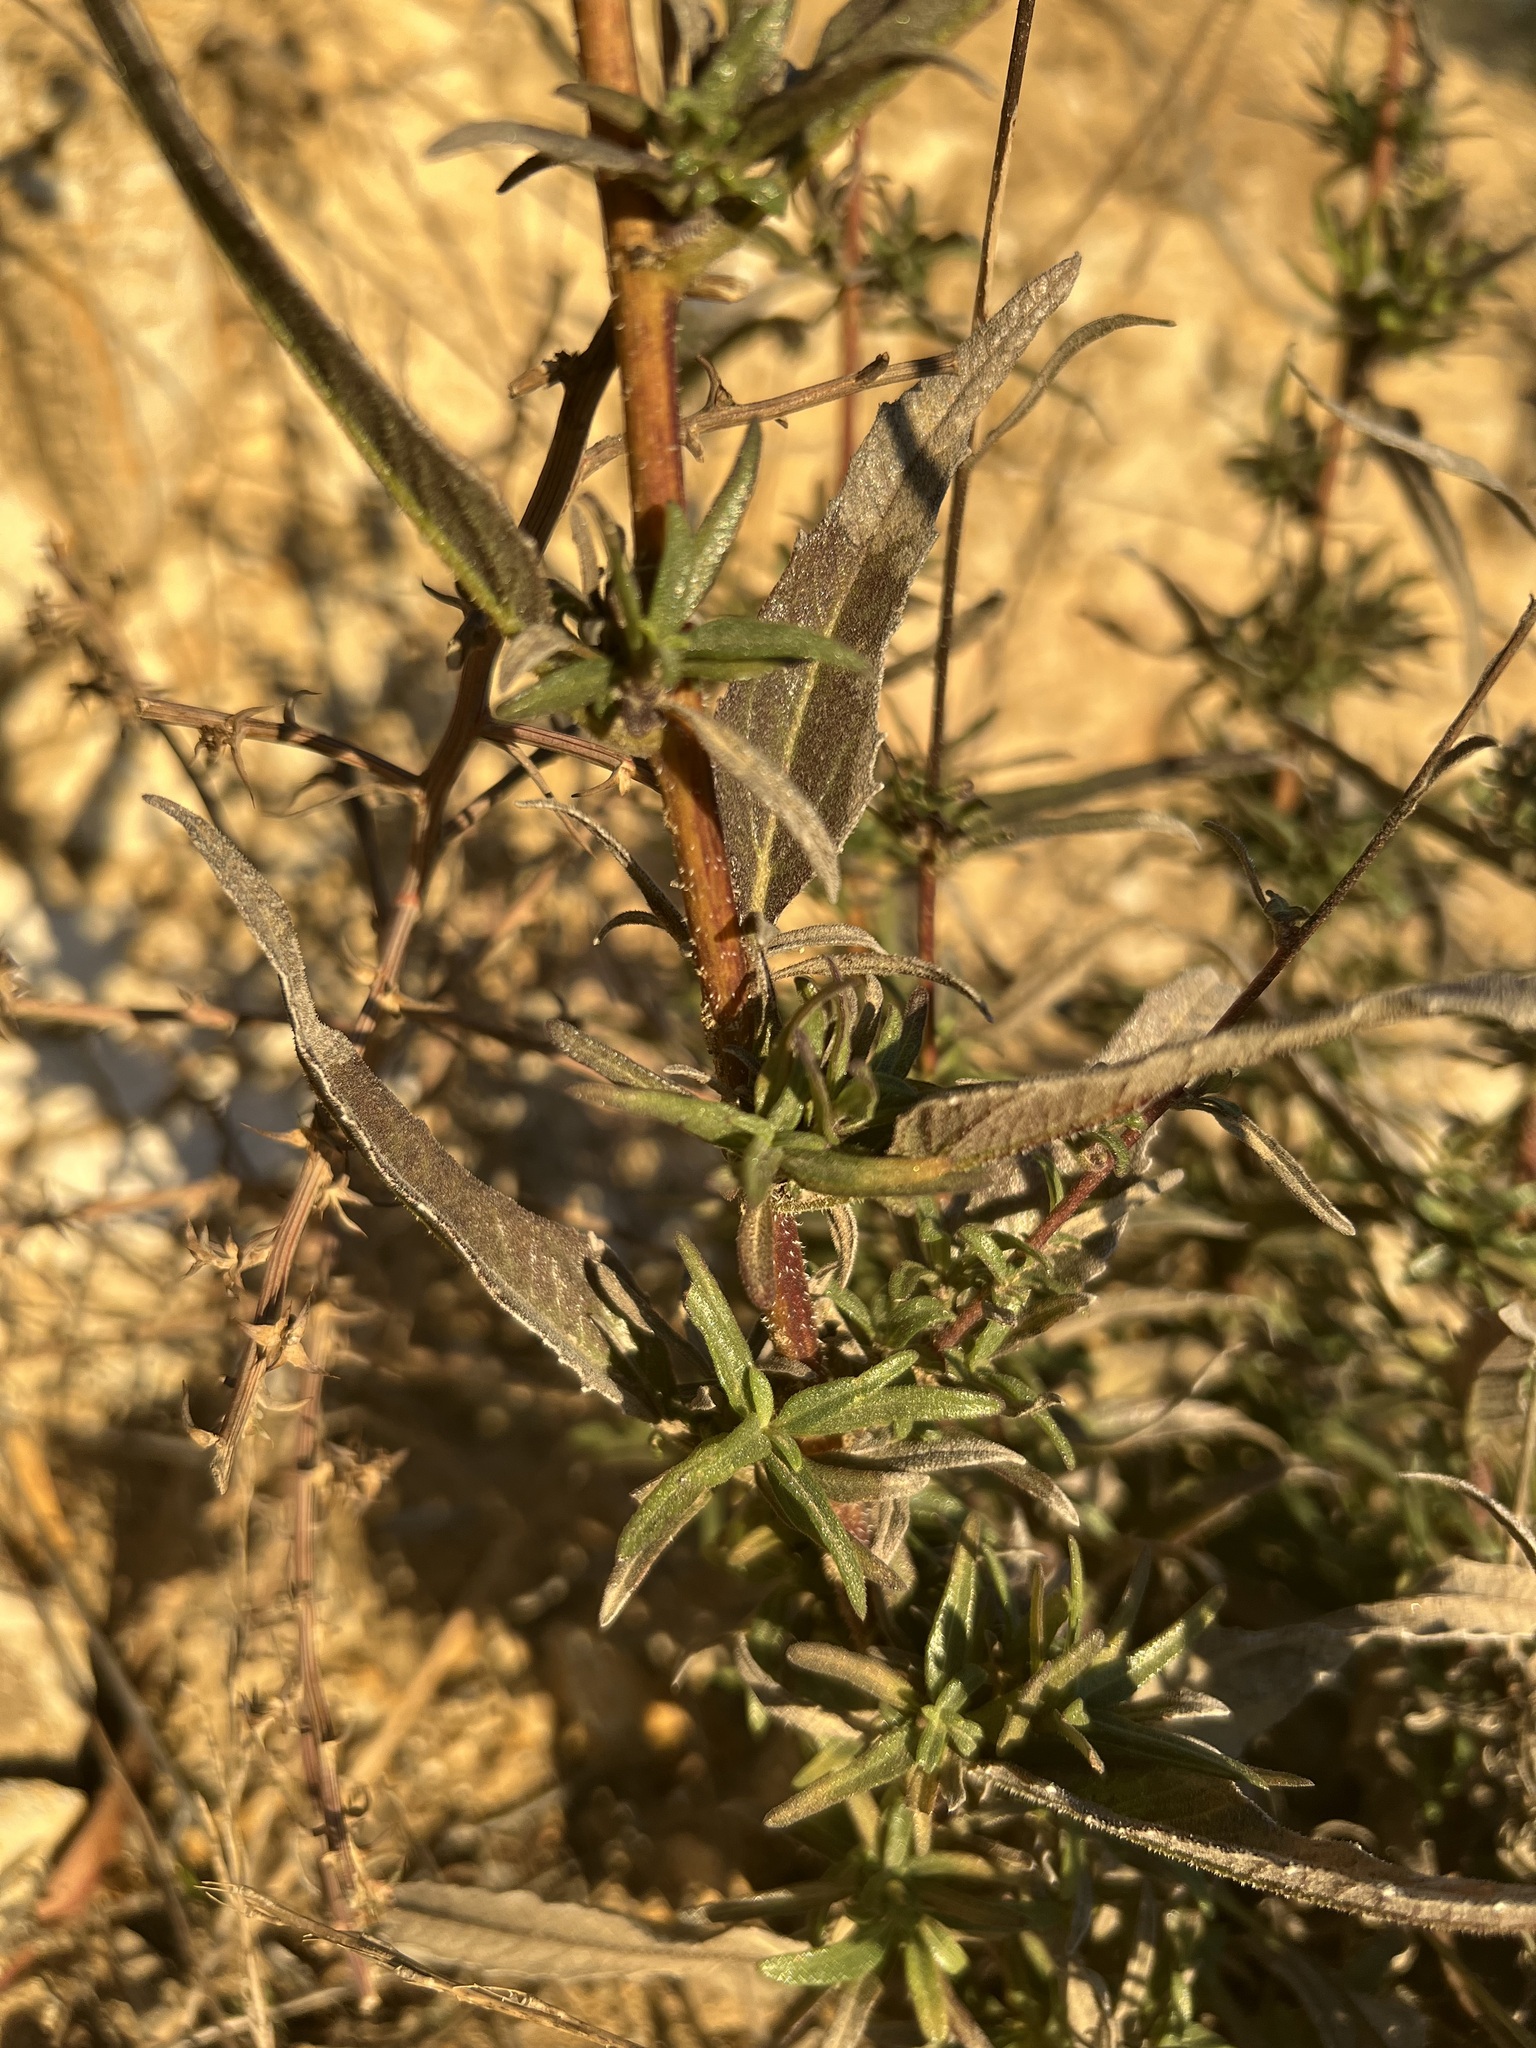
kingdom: Plantae
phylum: Tracheophyta
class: Magnoliopsida
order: Asterales
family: Asteraceae
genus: Helianthus
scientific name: Helianthus gracilentus
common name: Slender sunflower
